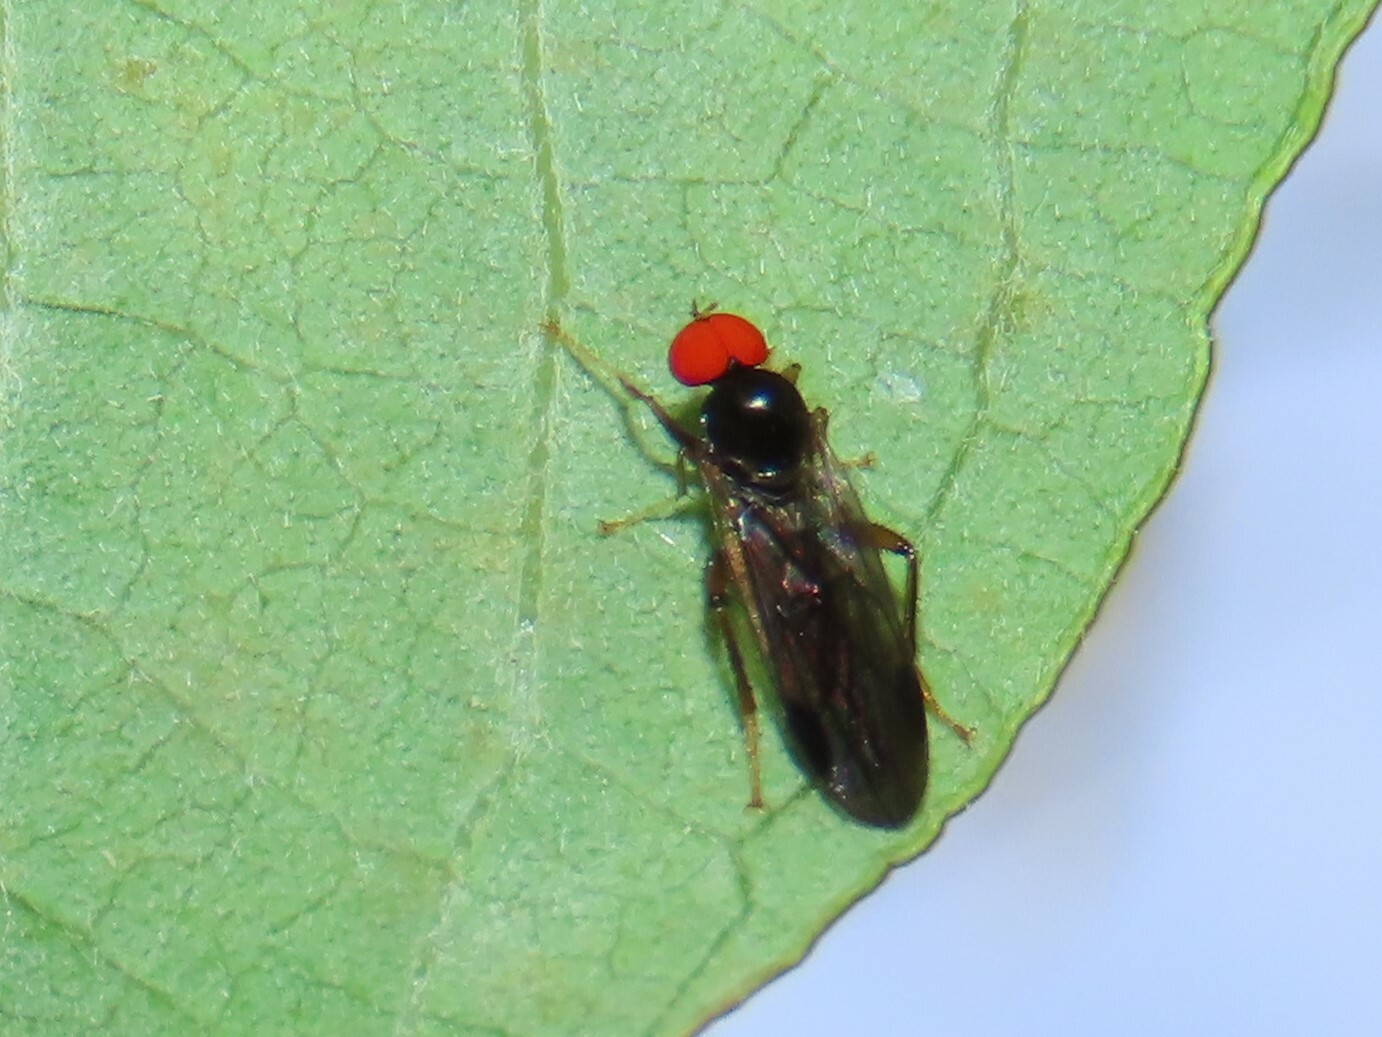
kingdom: Animalia
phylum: Arthropoda
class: Insecta
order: Diptera
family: Hybotidae
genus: Syneches
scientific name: Syneches thoracicus
